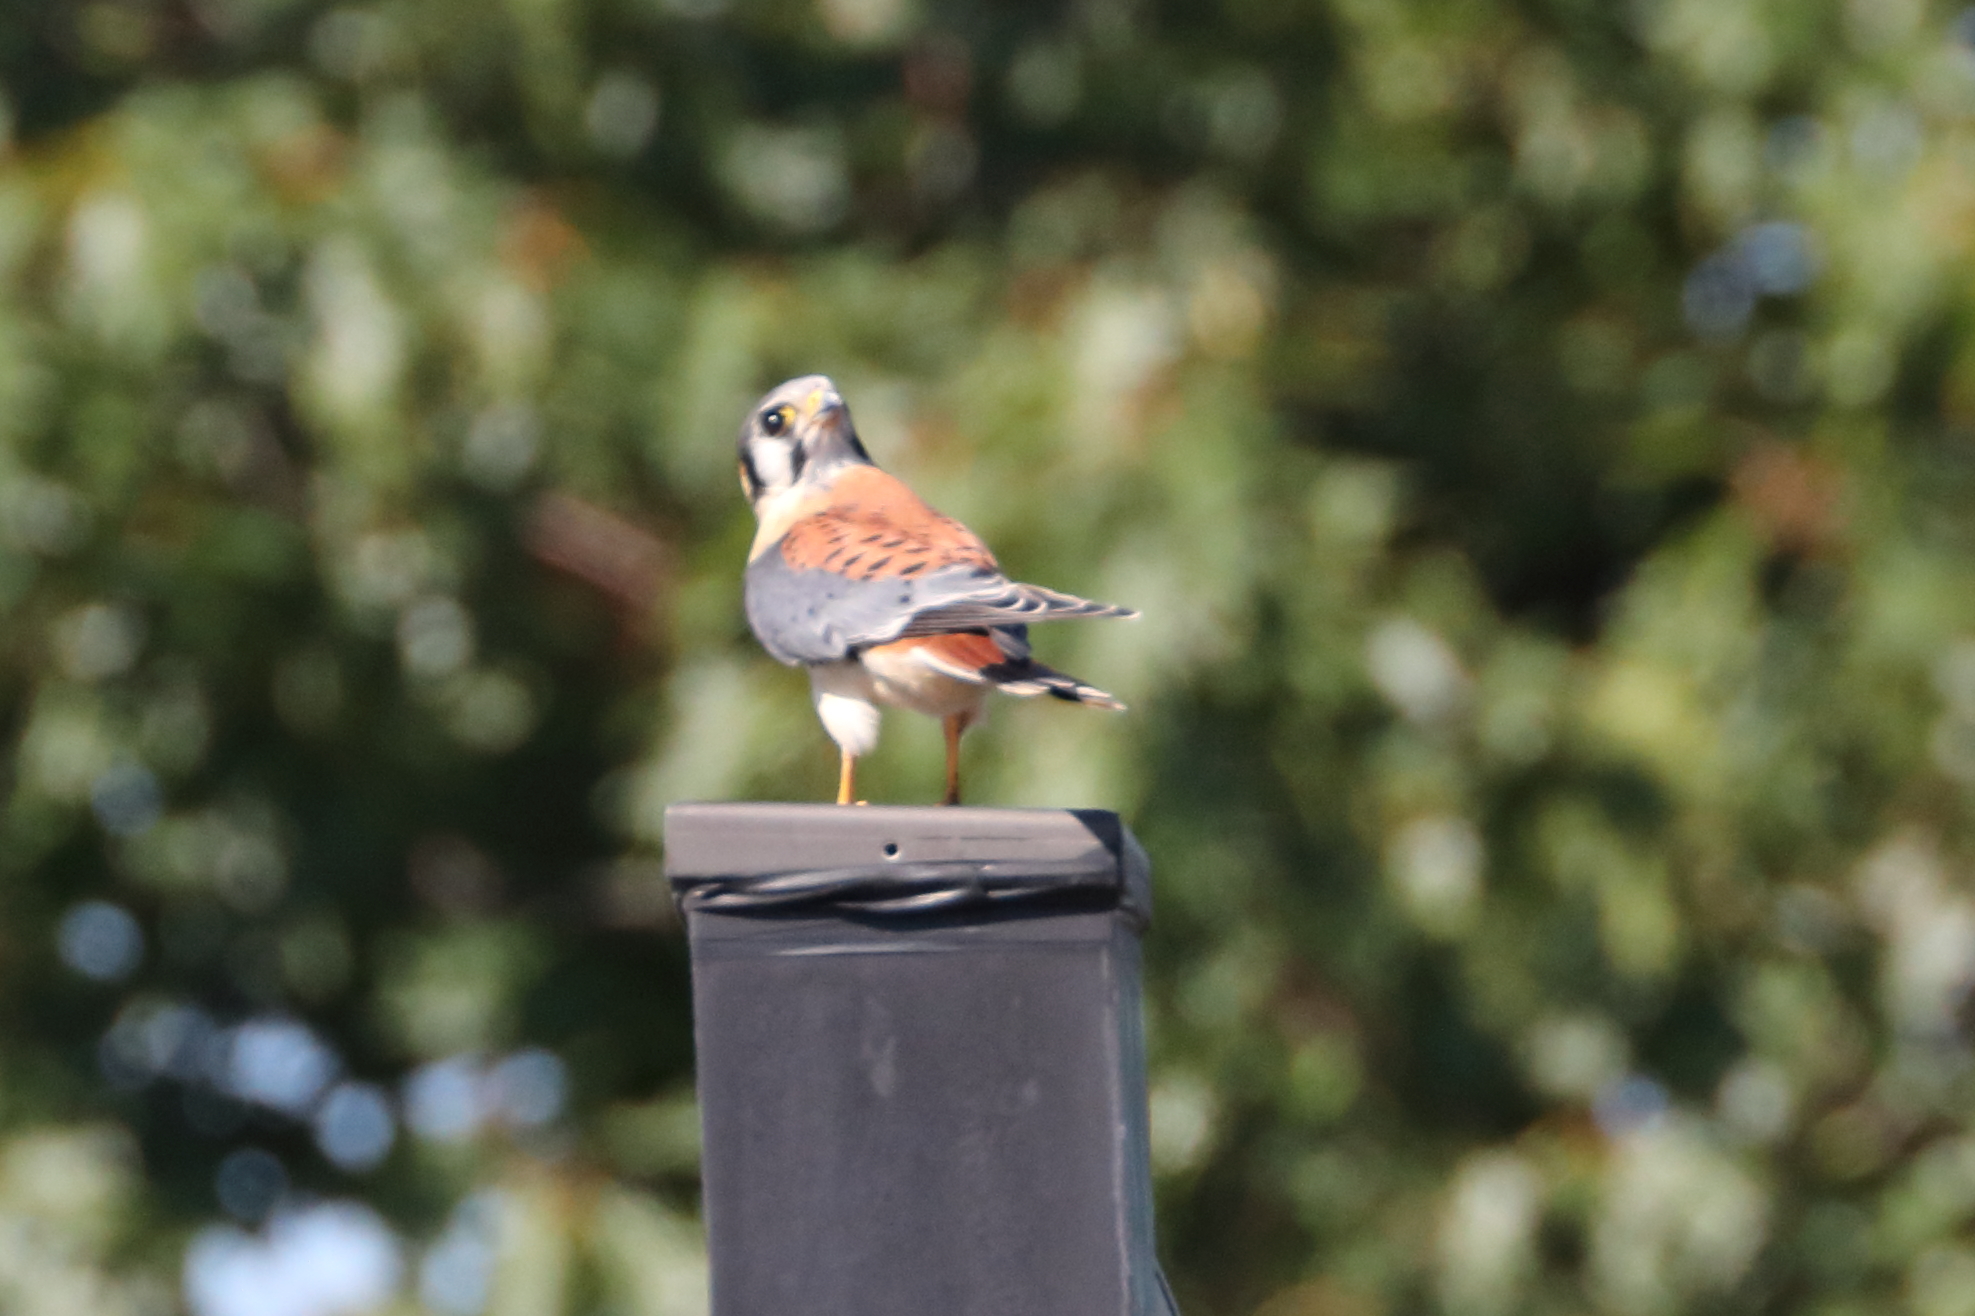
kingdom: Animalia
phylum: Chordata
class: Aves
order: Falconiformes
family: Falconidae
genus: Falco
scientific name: Falco sparverius
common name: American kestrel
